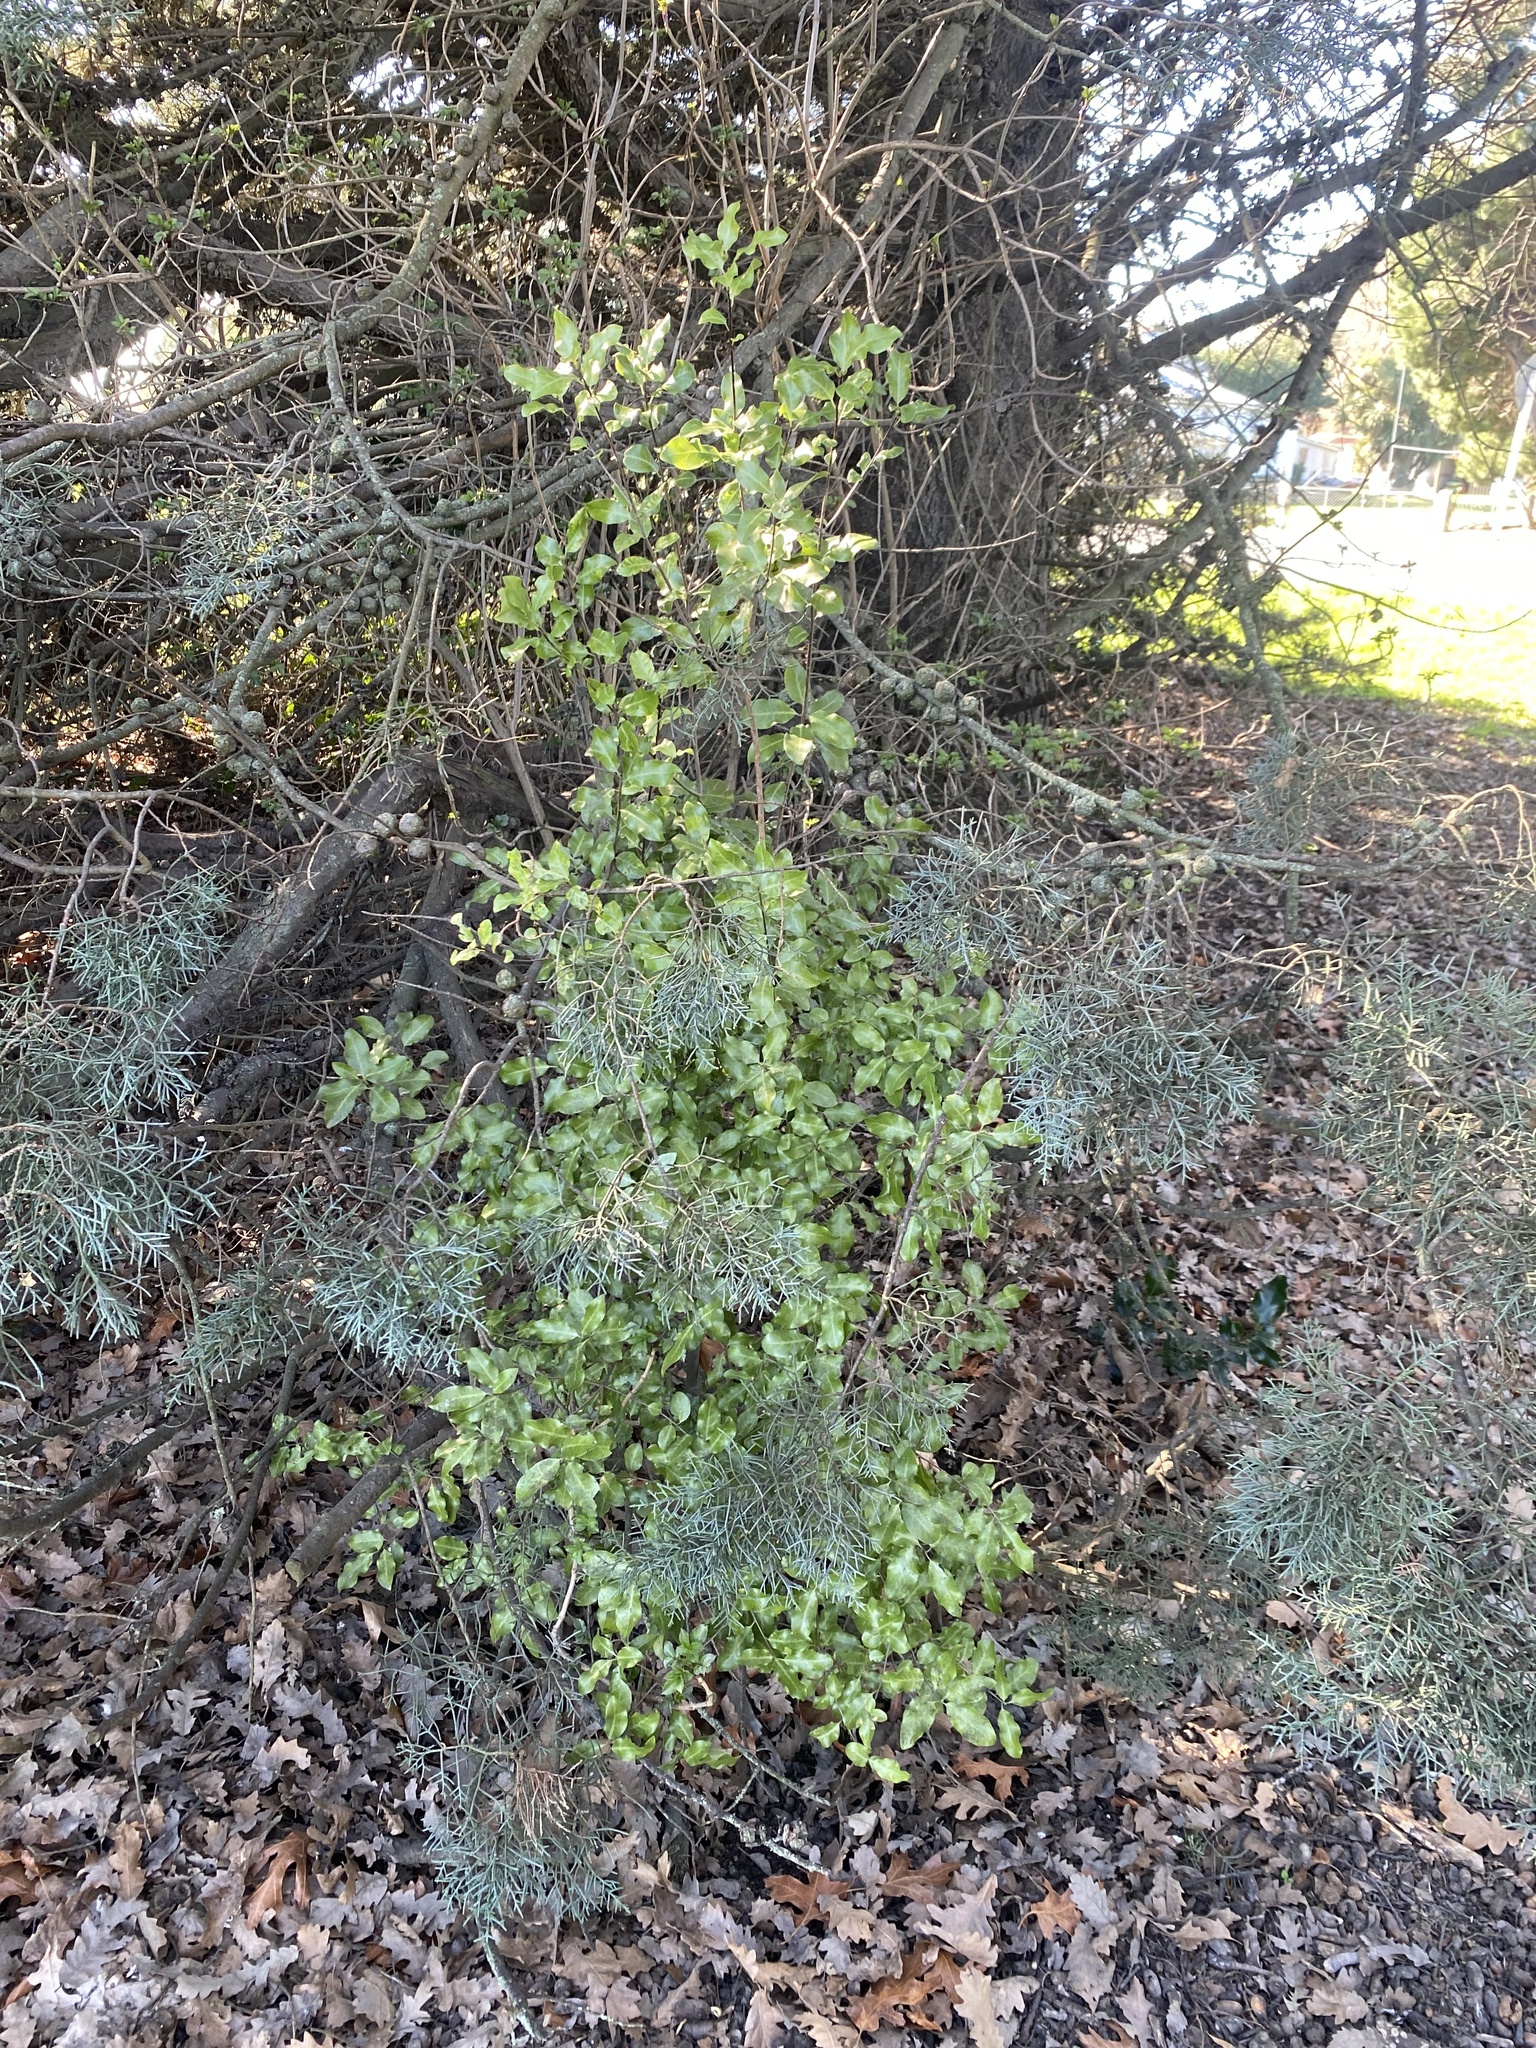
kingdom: Plantae
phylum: Tracheophyta
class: Magnoliopsida
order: Apiales
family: Pittosporaceae
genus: Pittosporum
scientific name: Pittosporum tenuifolium
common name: Kohuhu
